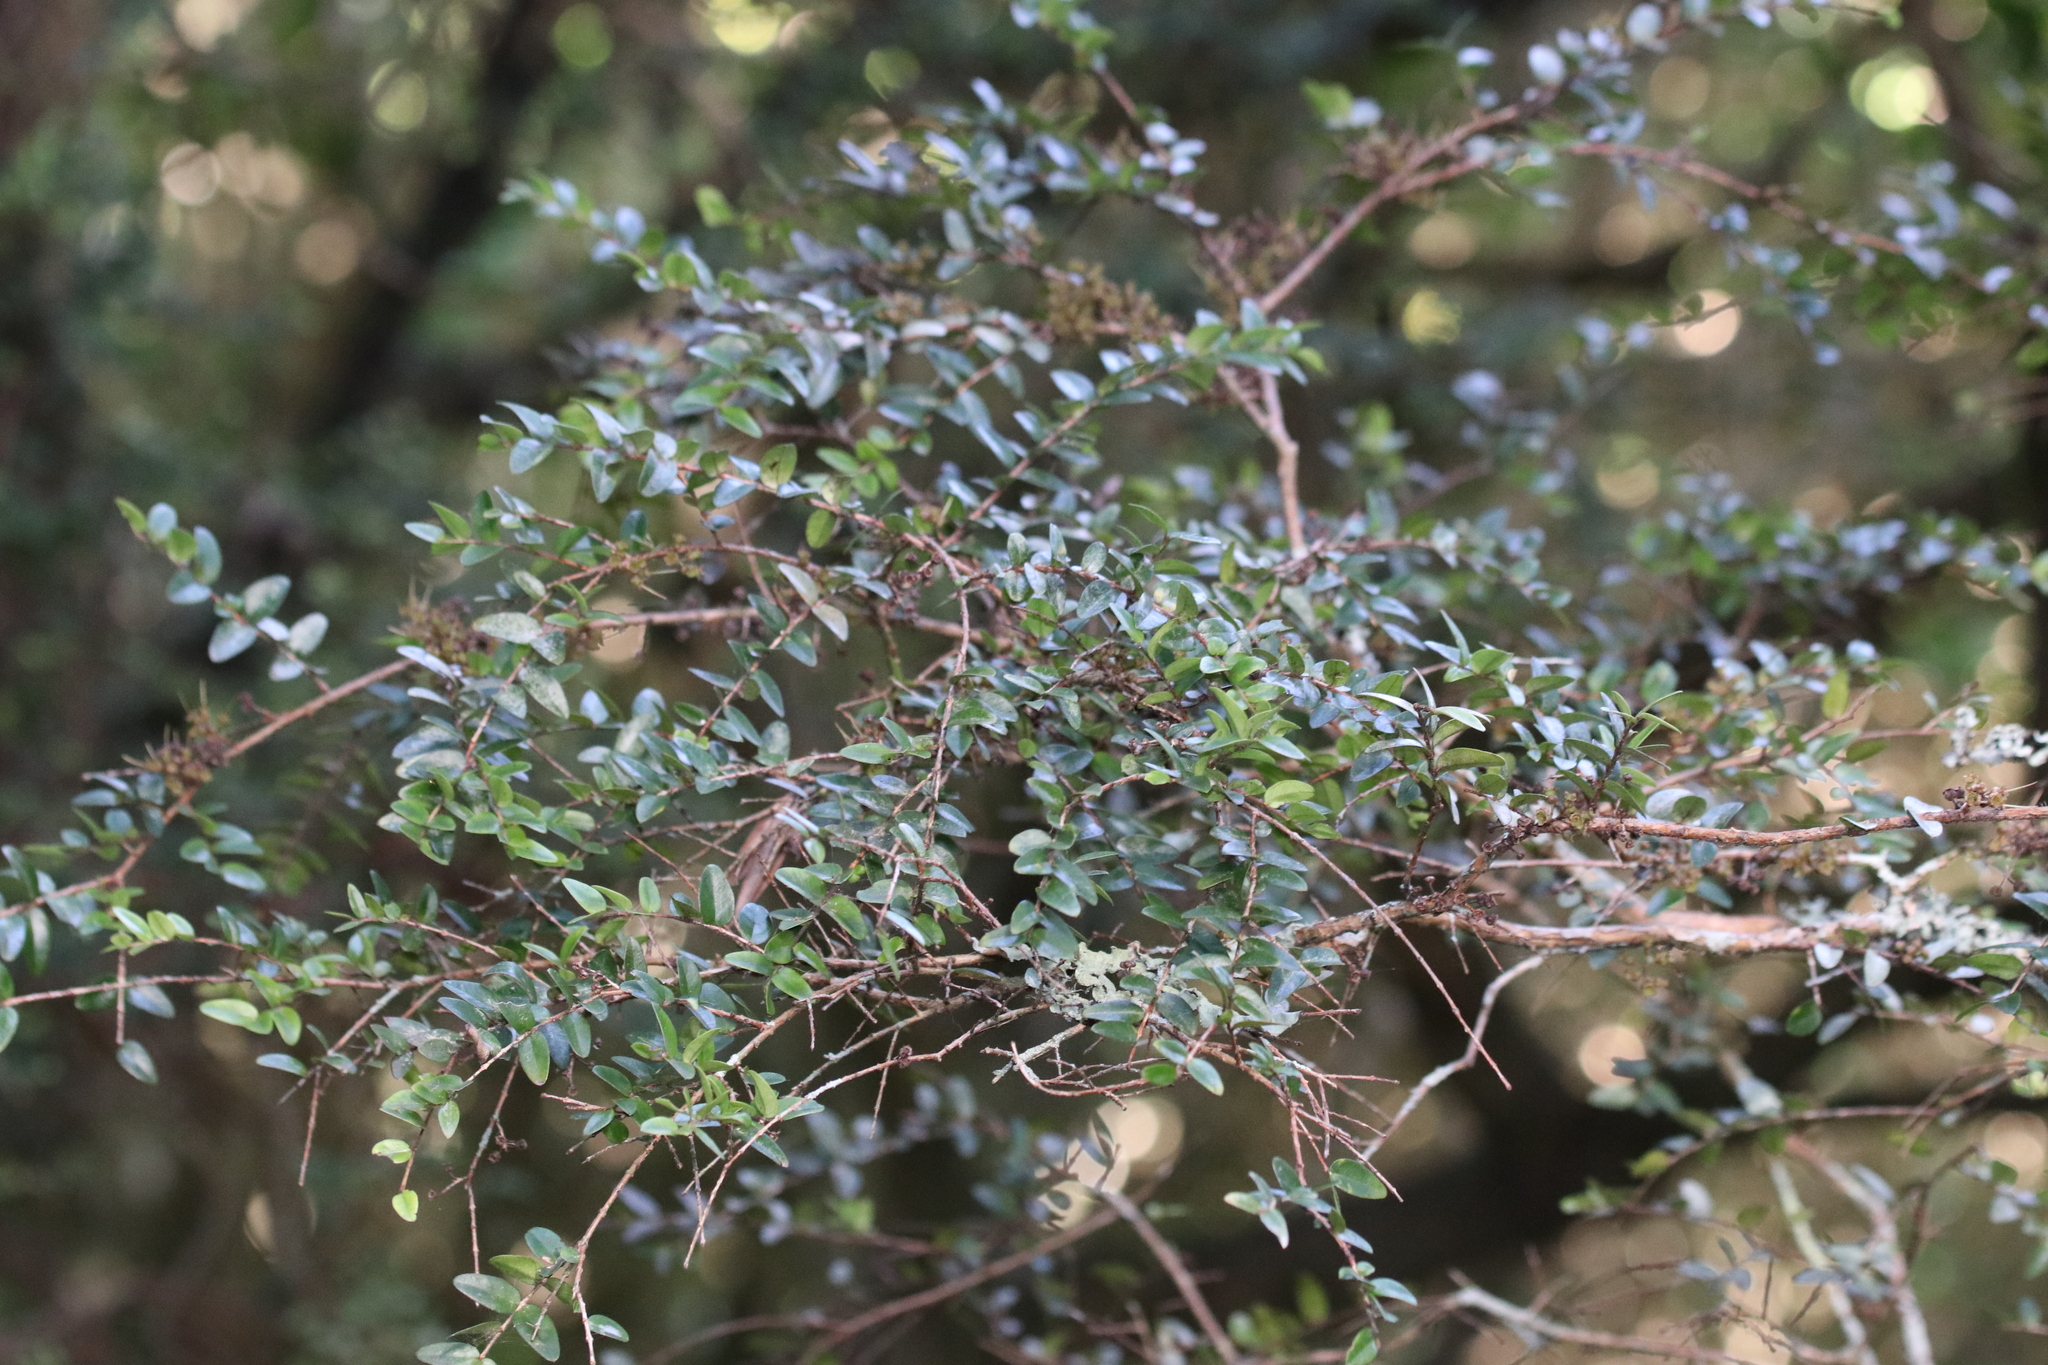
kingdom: Plantae
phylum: Tracheophyta
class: Magnoliopsida
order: Myrtales
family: Myrtaceae
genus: Metrosideros
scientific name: Metrosideros diffusa
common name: Small ratavine
